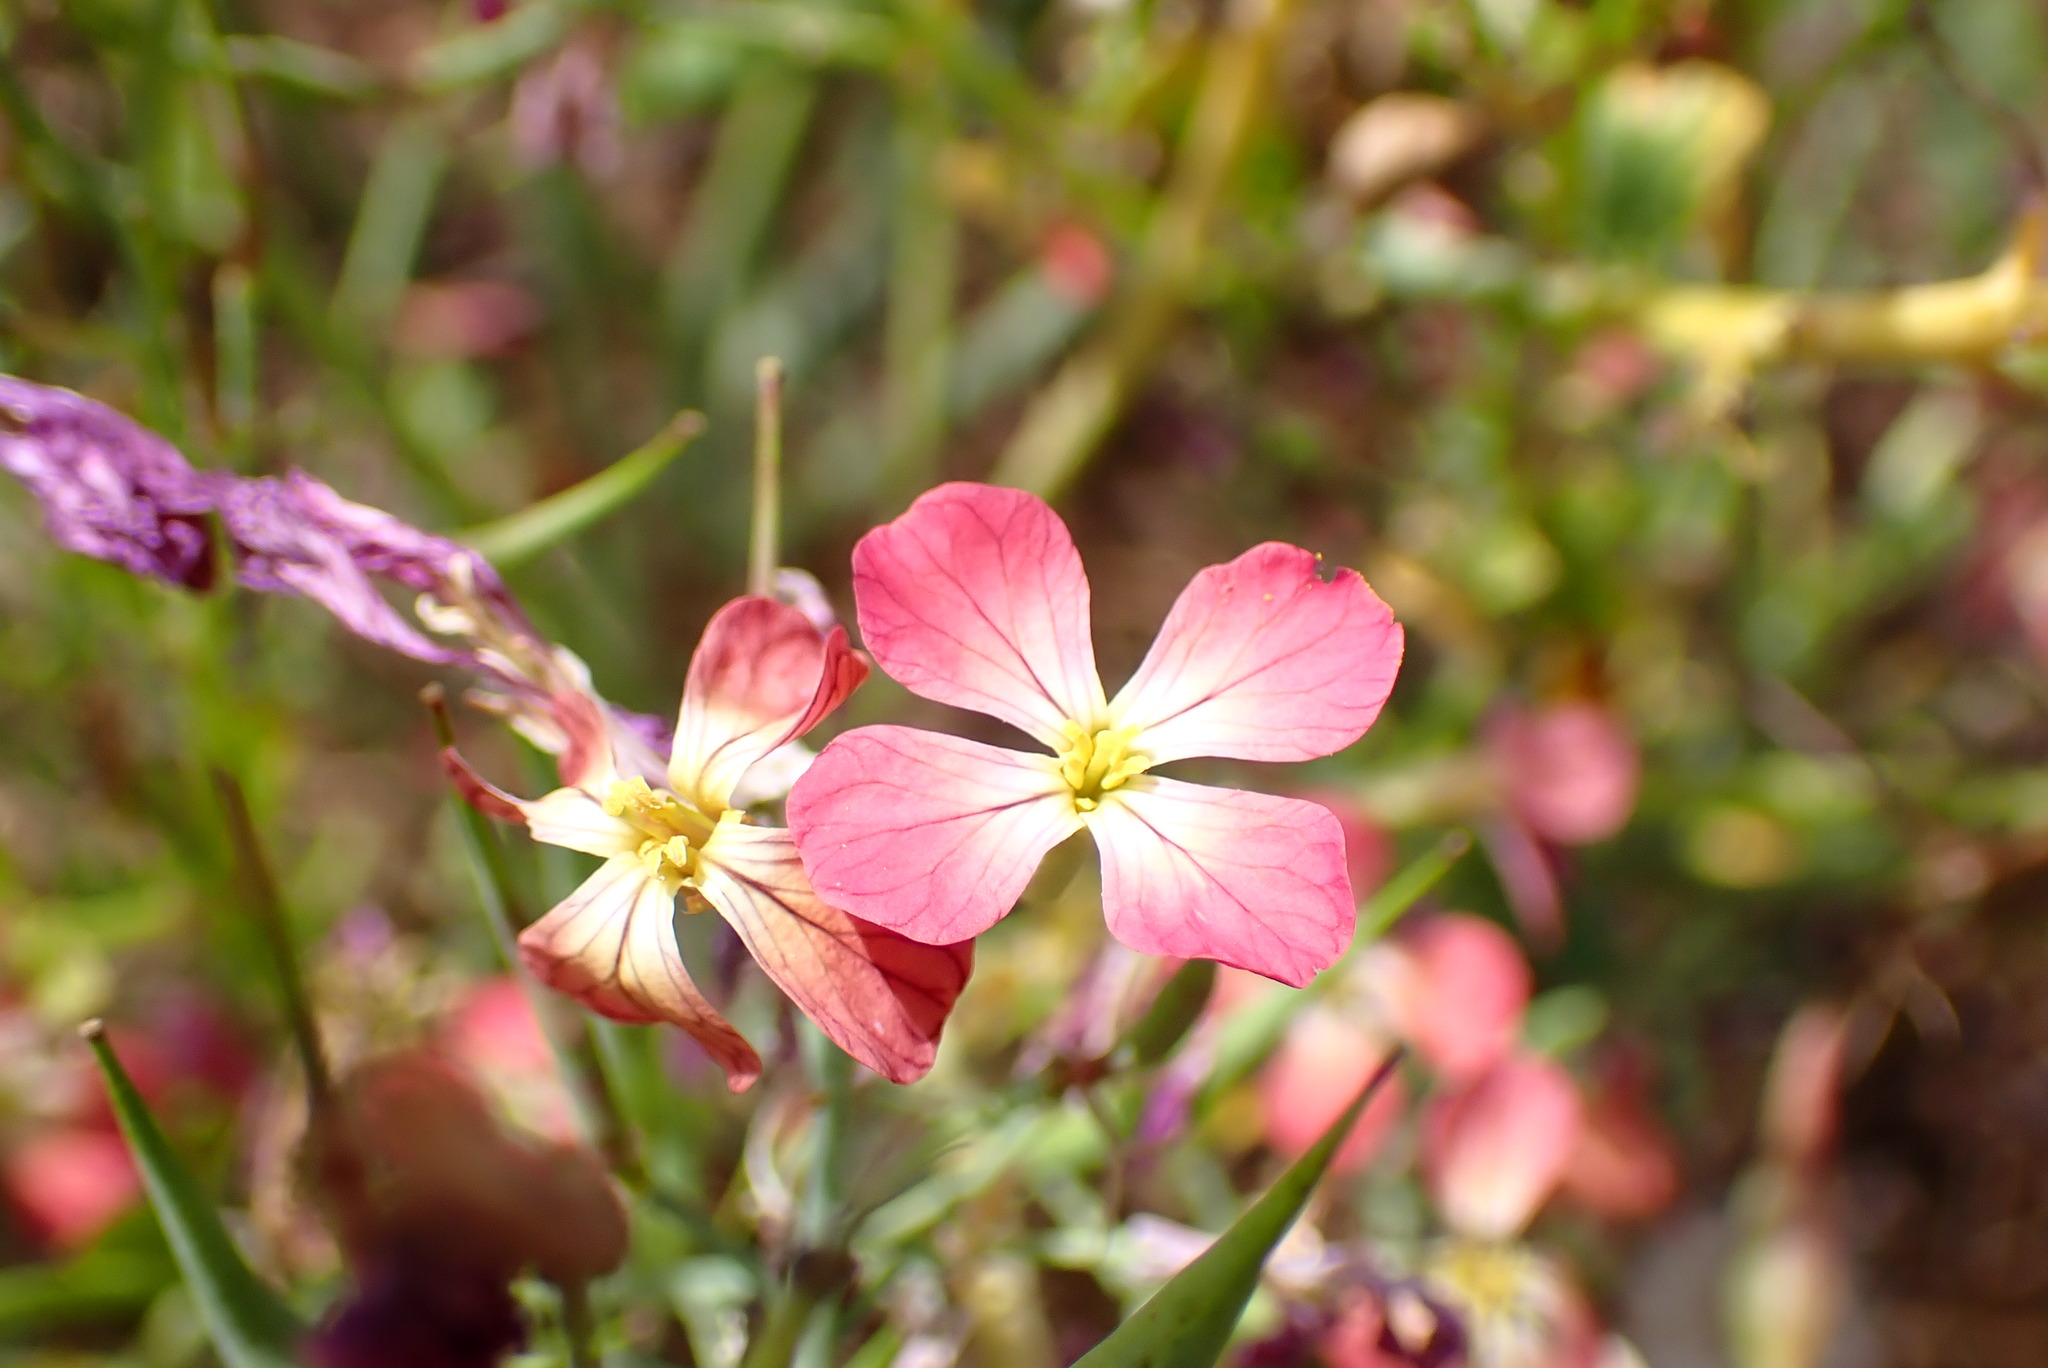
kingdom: Plantae
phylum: Tracheophyta
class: Magnoliopsida
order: Brassicales
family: Brassicaceae
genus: Raphanus
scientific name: Raphanus sativus
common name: Cultivated radish
